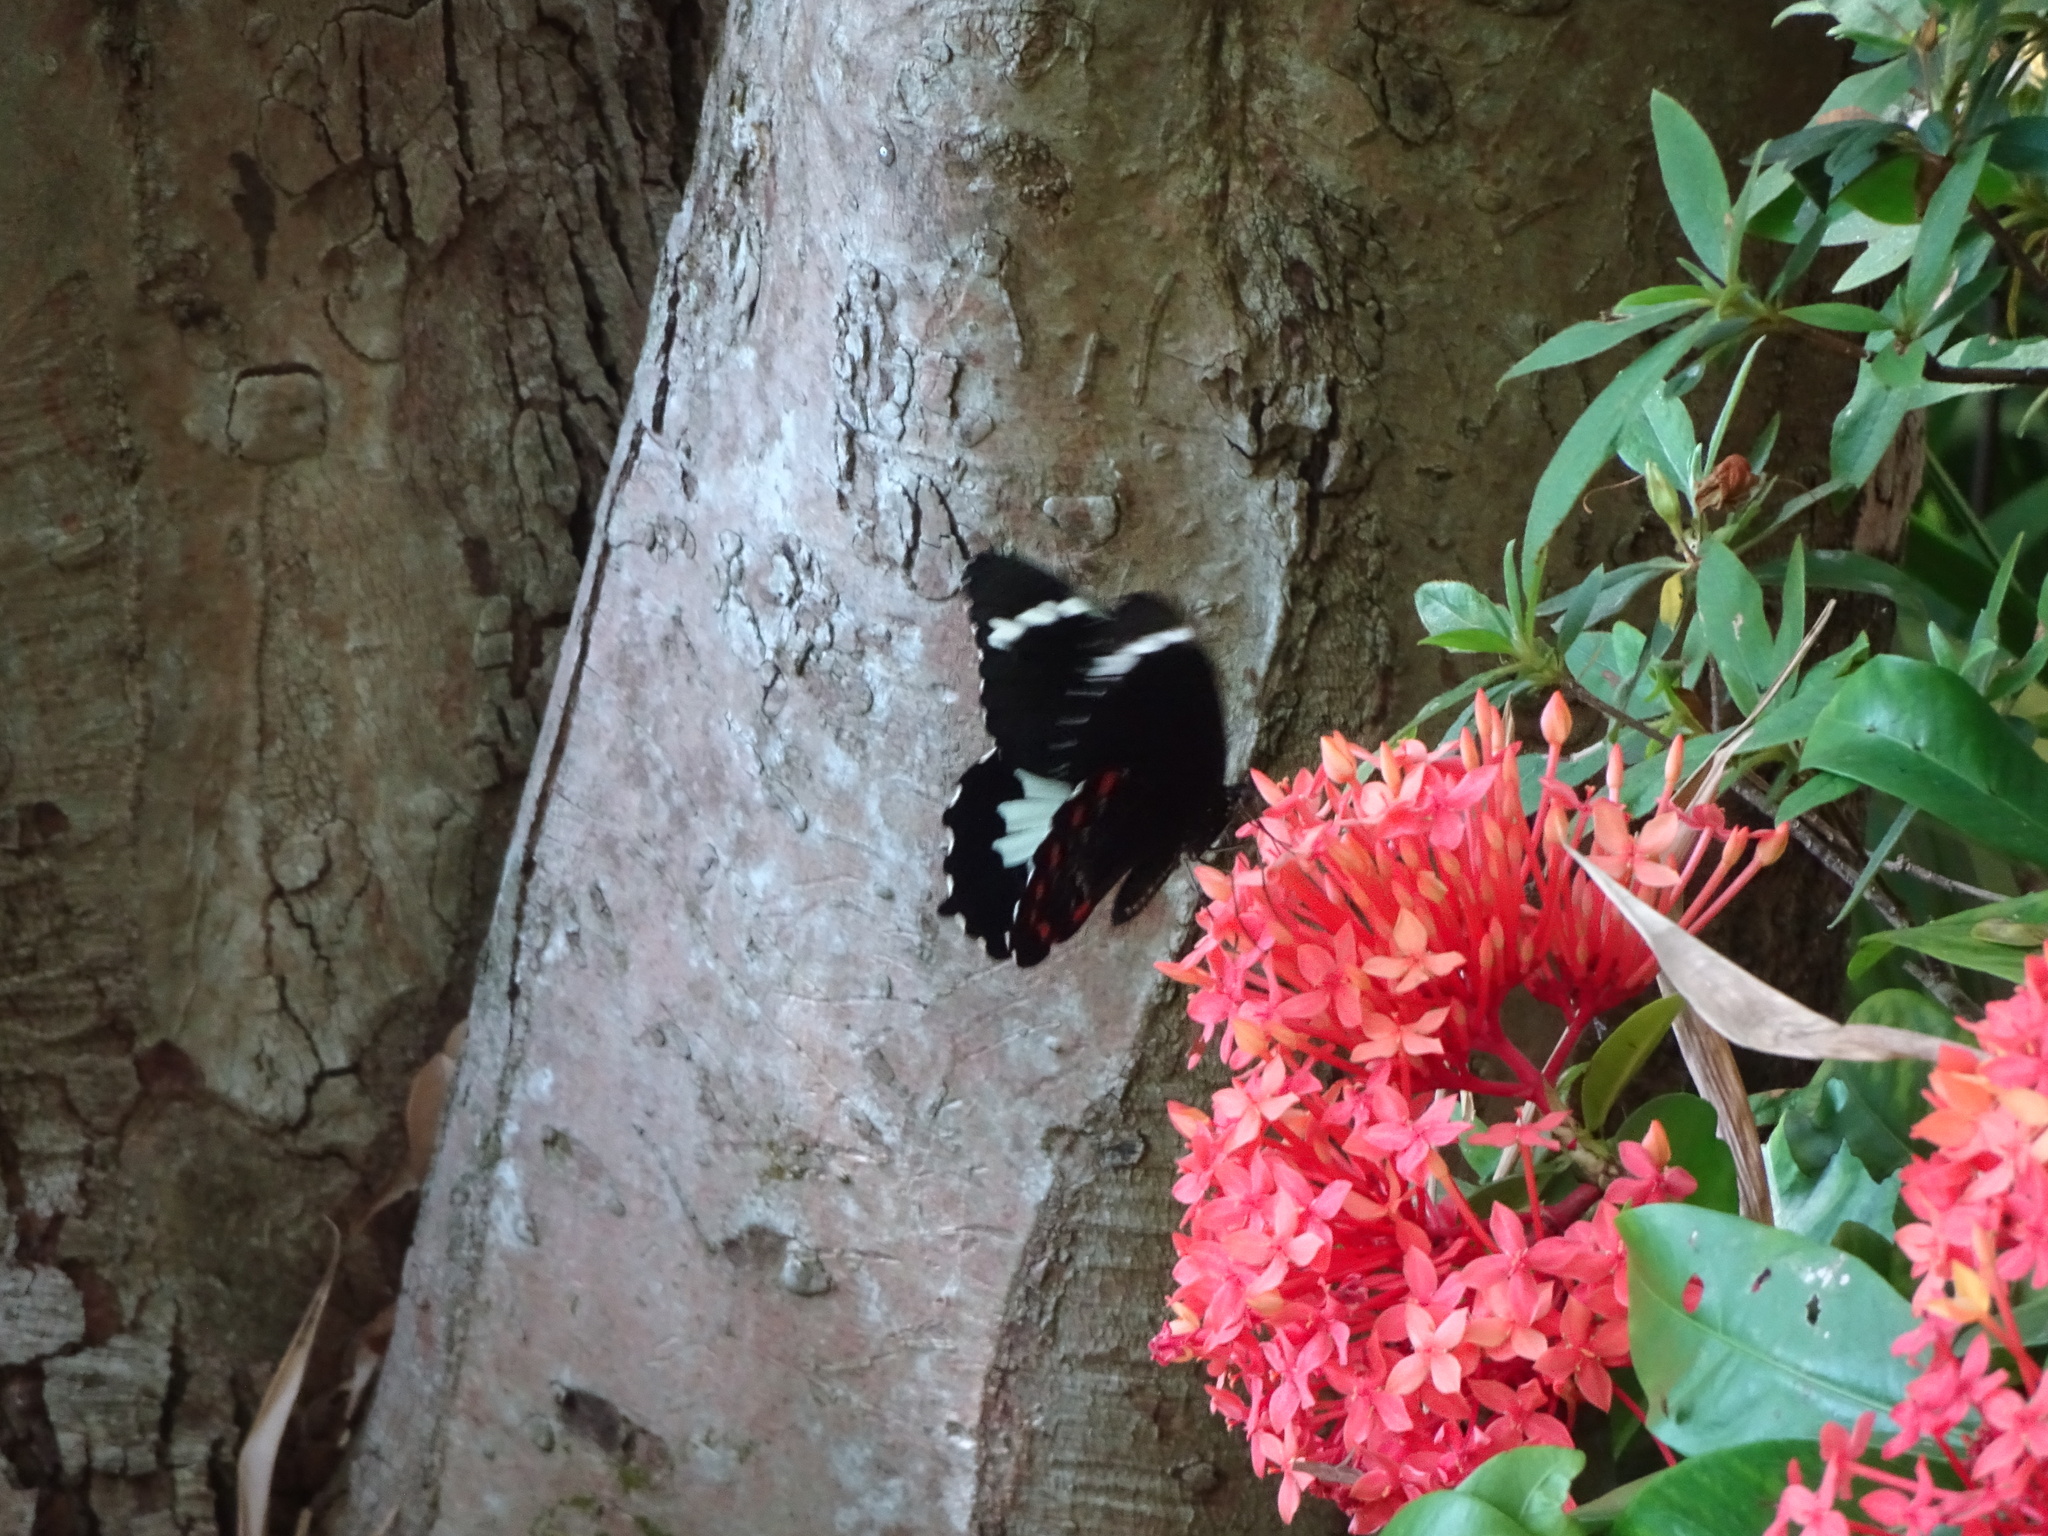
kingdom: Animalia
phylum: Arthropoda
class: Insecta
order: Lepidoptera
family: Papilionidae
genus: Papilio
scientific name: Papilio aegeus
